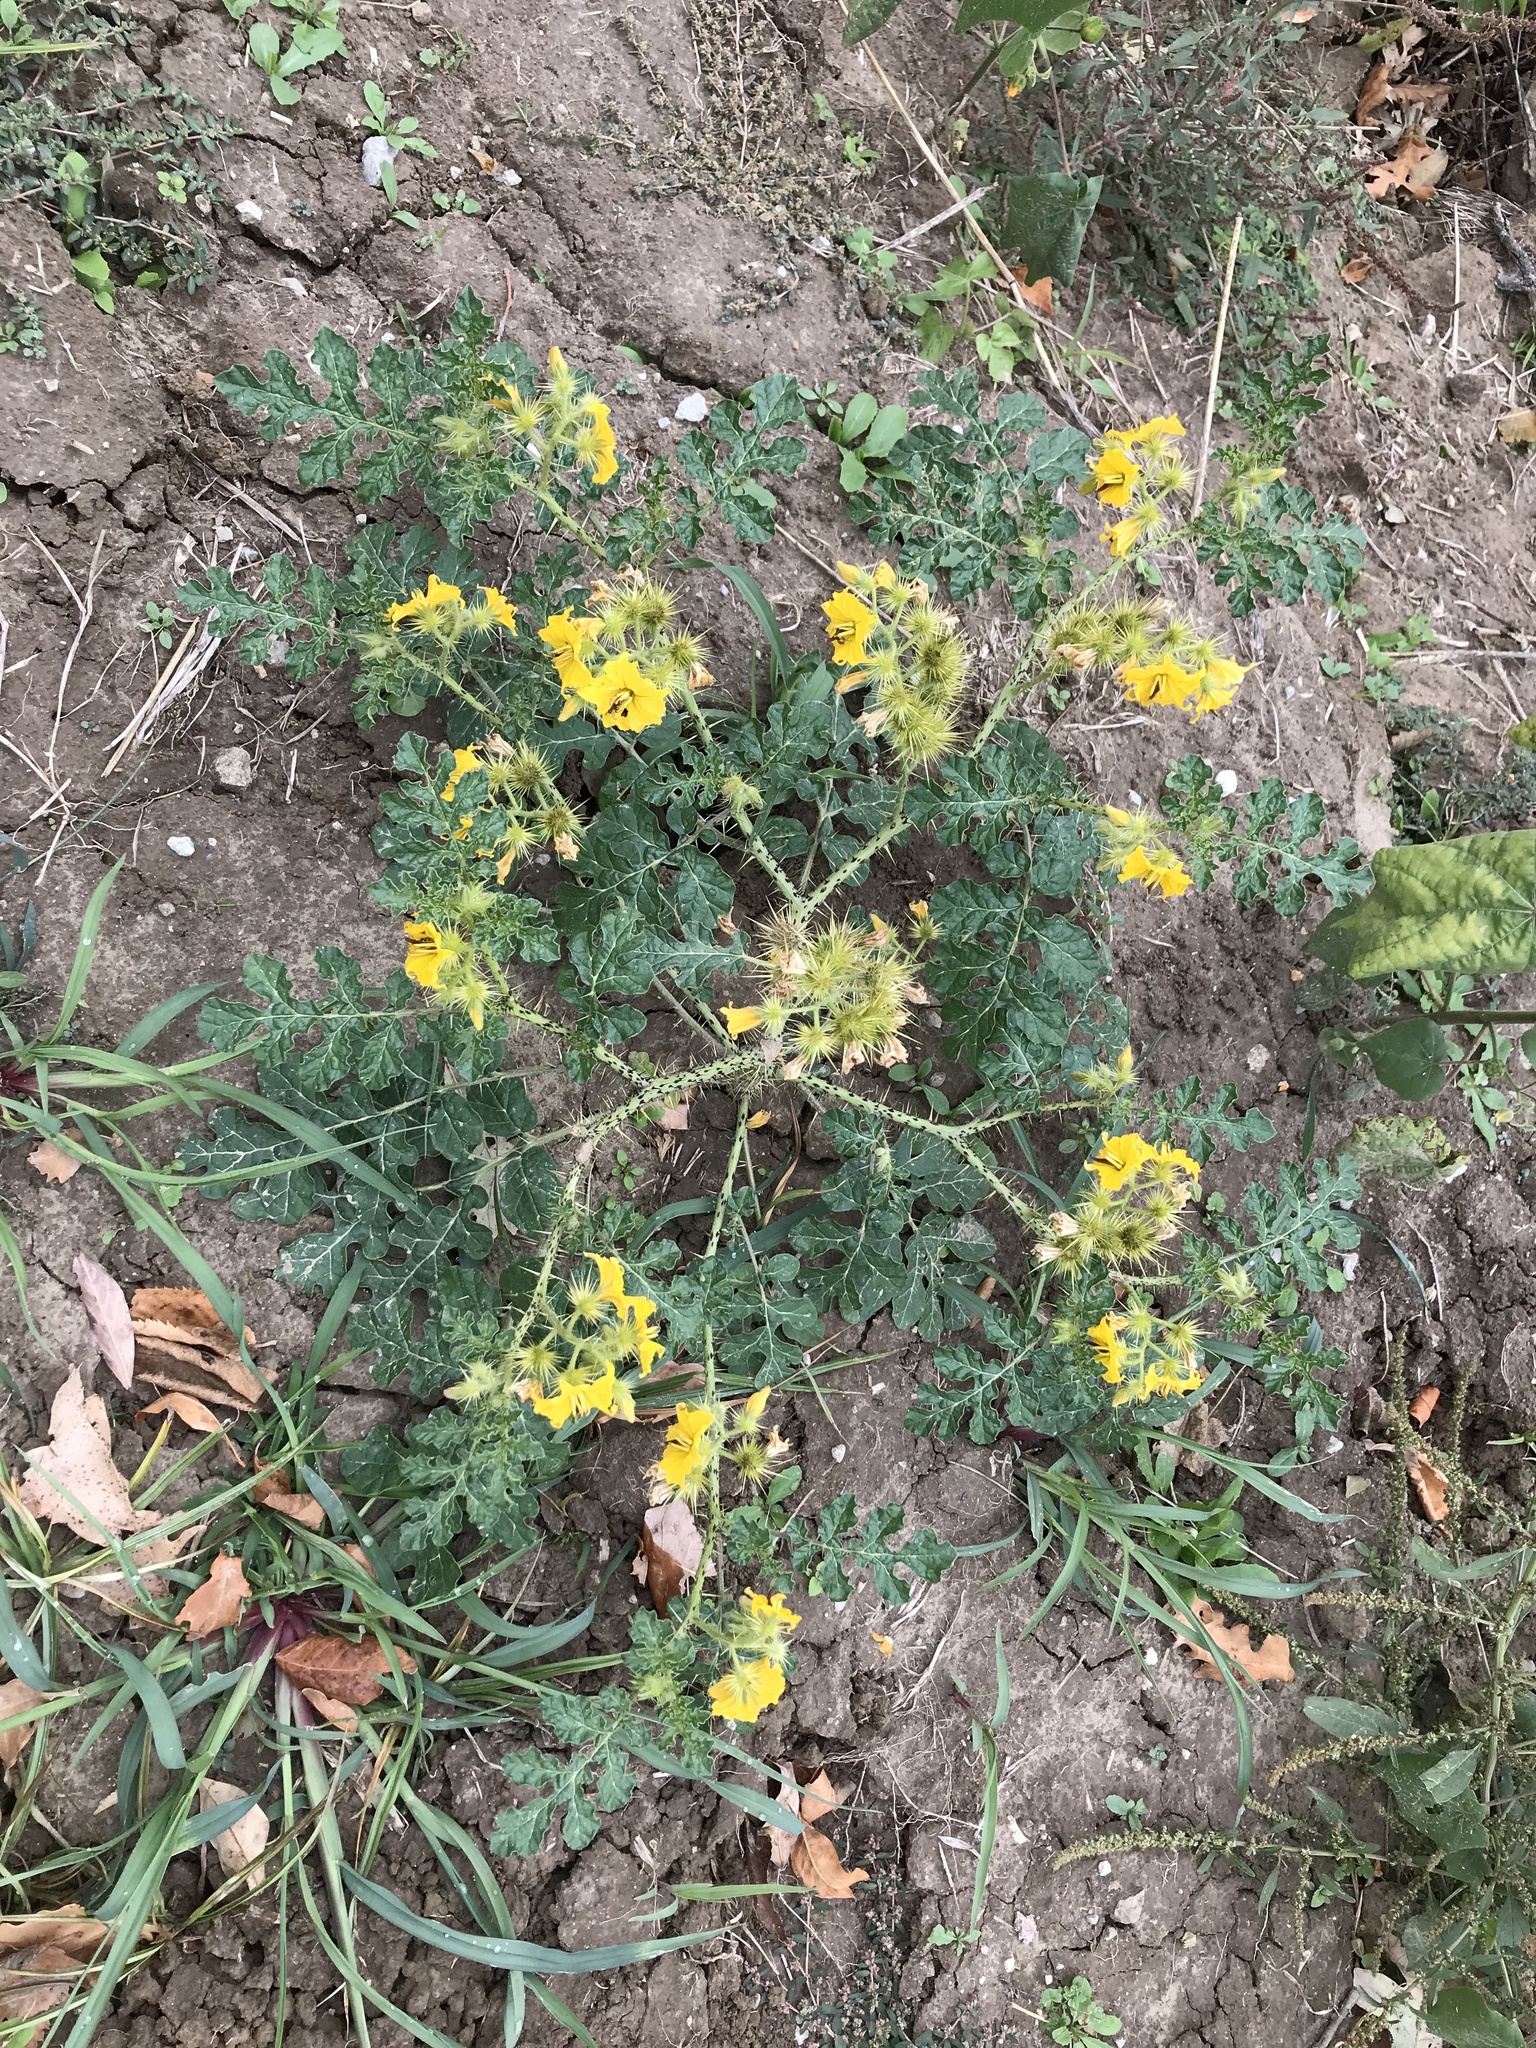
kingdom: Plantae
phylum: Tracheophyta
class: Magnoliopsida
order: Solanales
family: Solanaceae
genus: Solanum
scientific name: Solanum angustifolium
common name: Buffalobur nightshade
